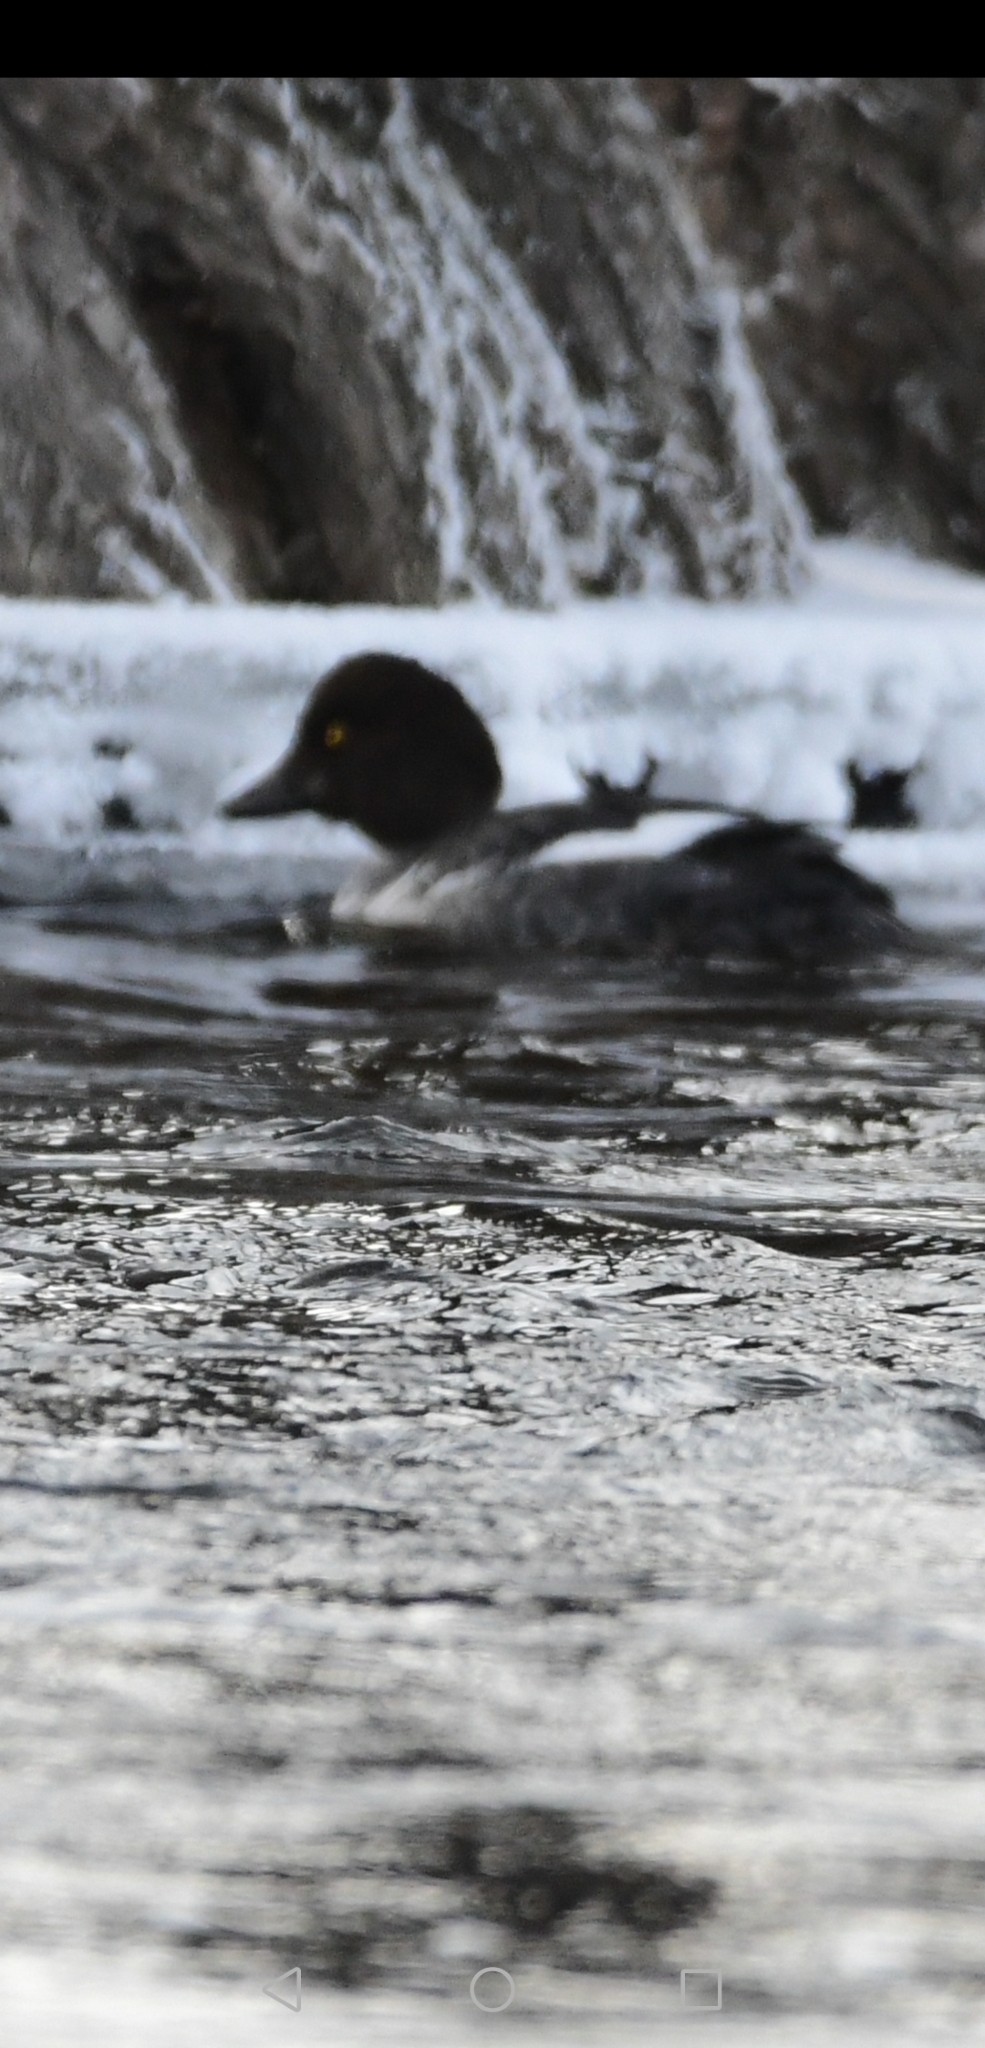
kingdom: Animalia
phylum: Chordata
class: Aves
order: Anseriformes
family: Anatidae
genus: Bucephala
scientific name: Bucephala clangula
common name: Common goldeneye
